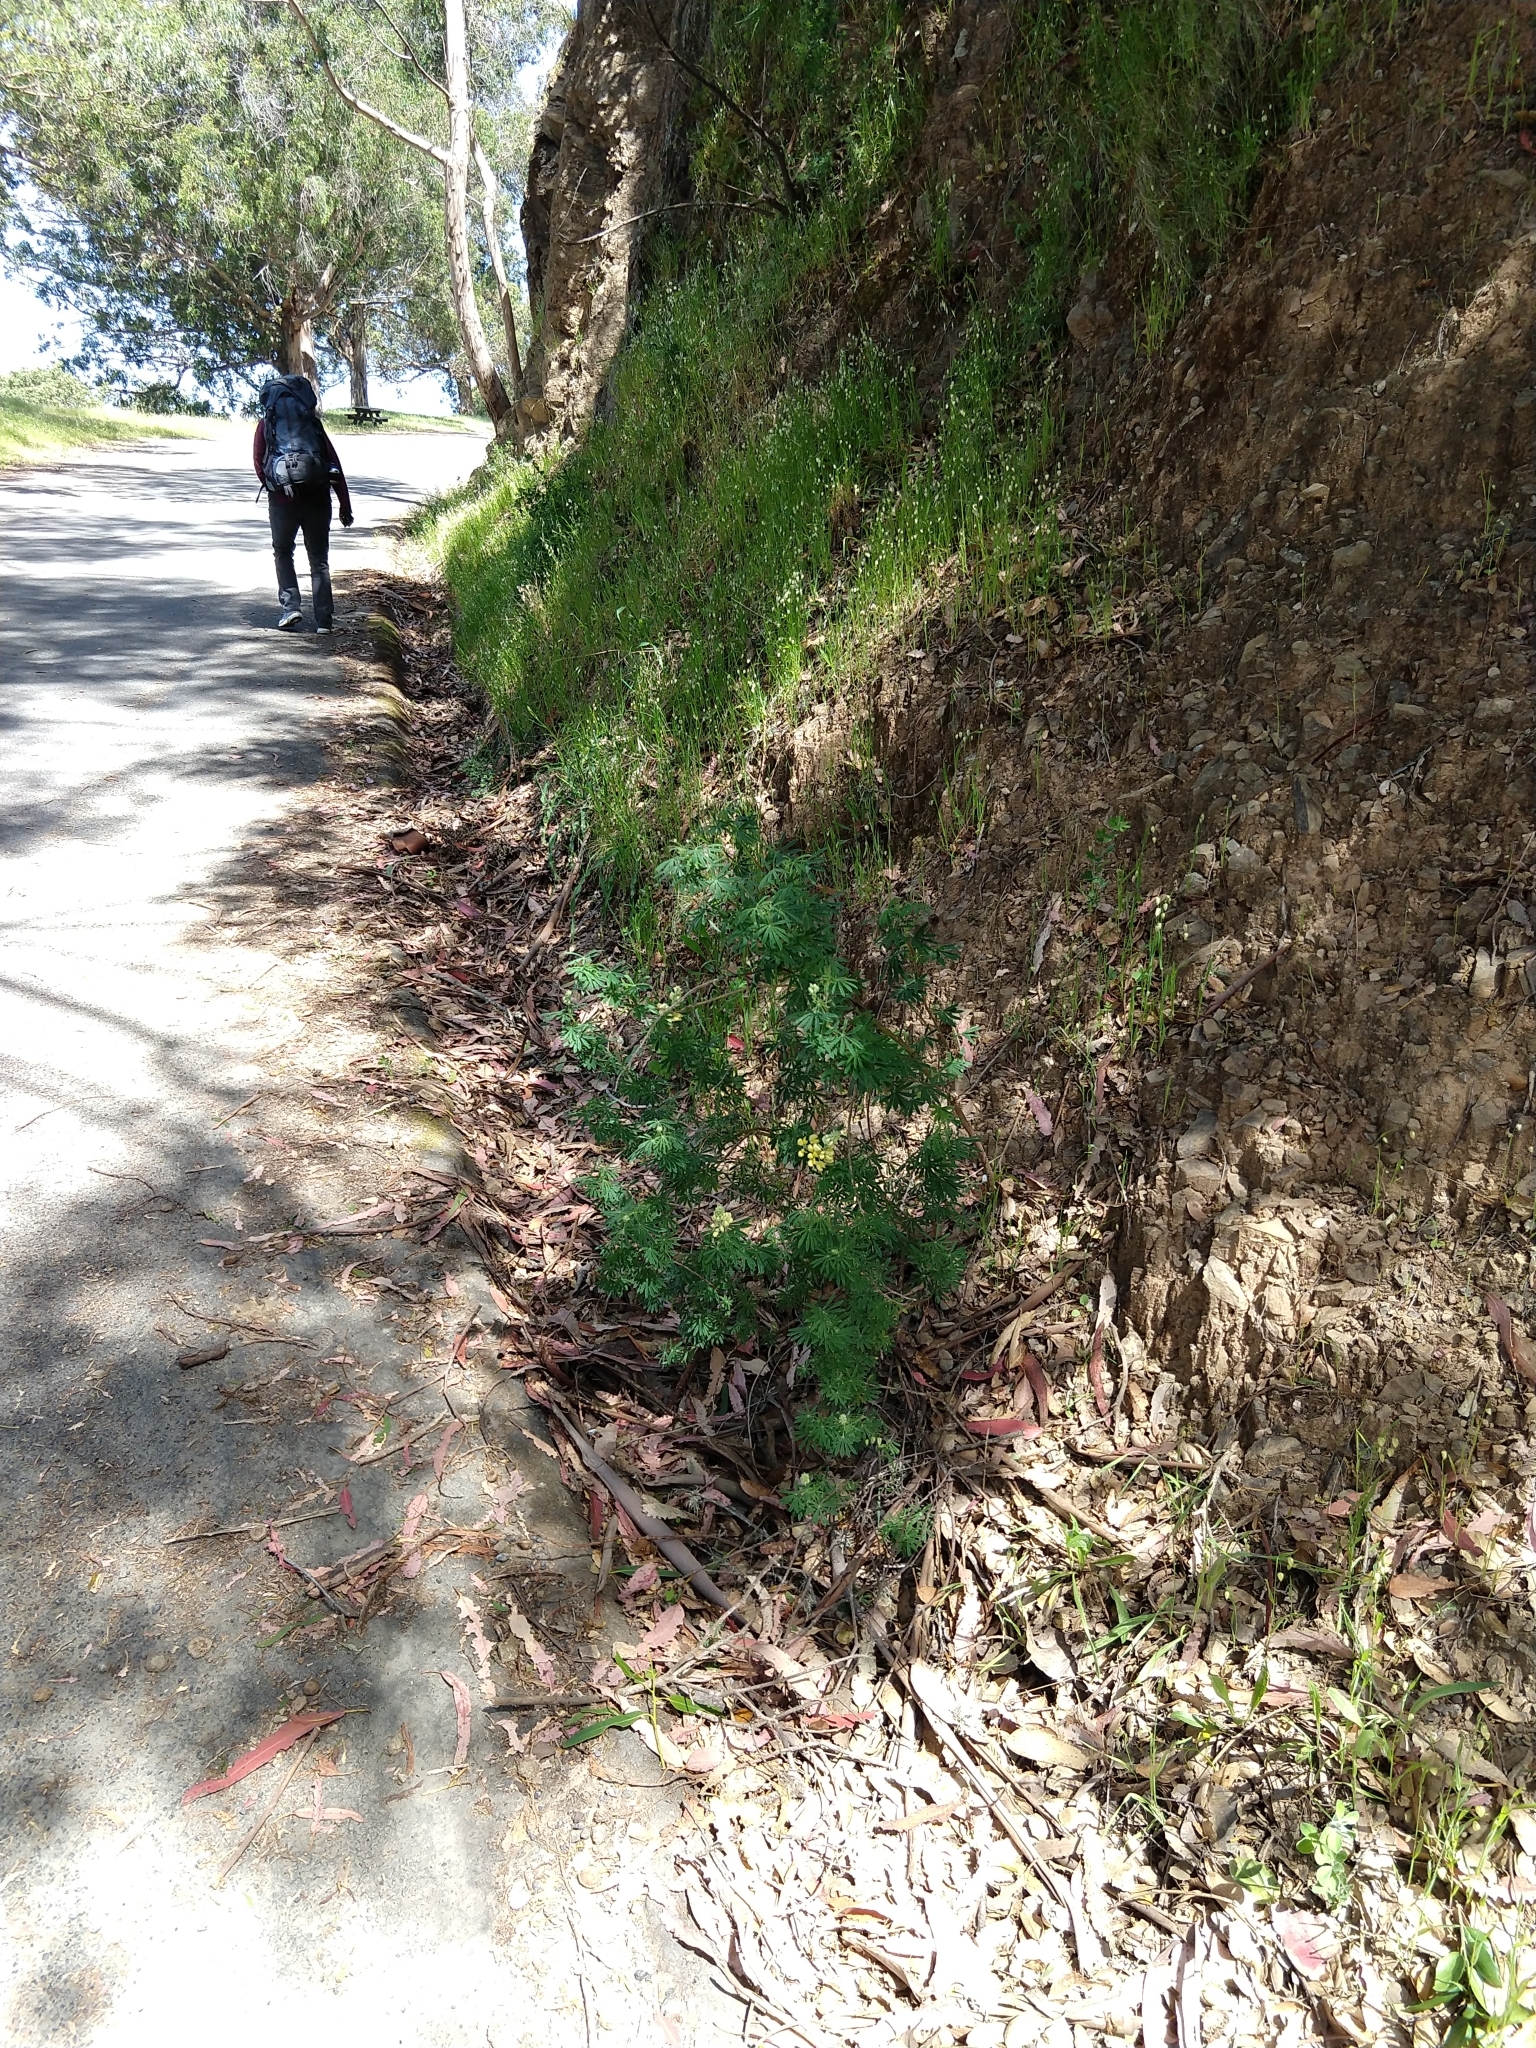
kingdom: Plantae
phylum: Tracheophyta
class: Magnoliopsida
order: Fabales
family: Fabaceae
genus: Lupinus
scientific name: Lupinus arboreus
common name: Yellow bush lupine
